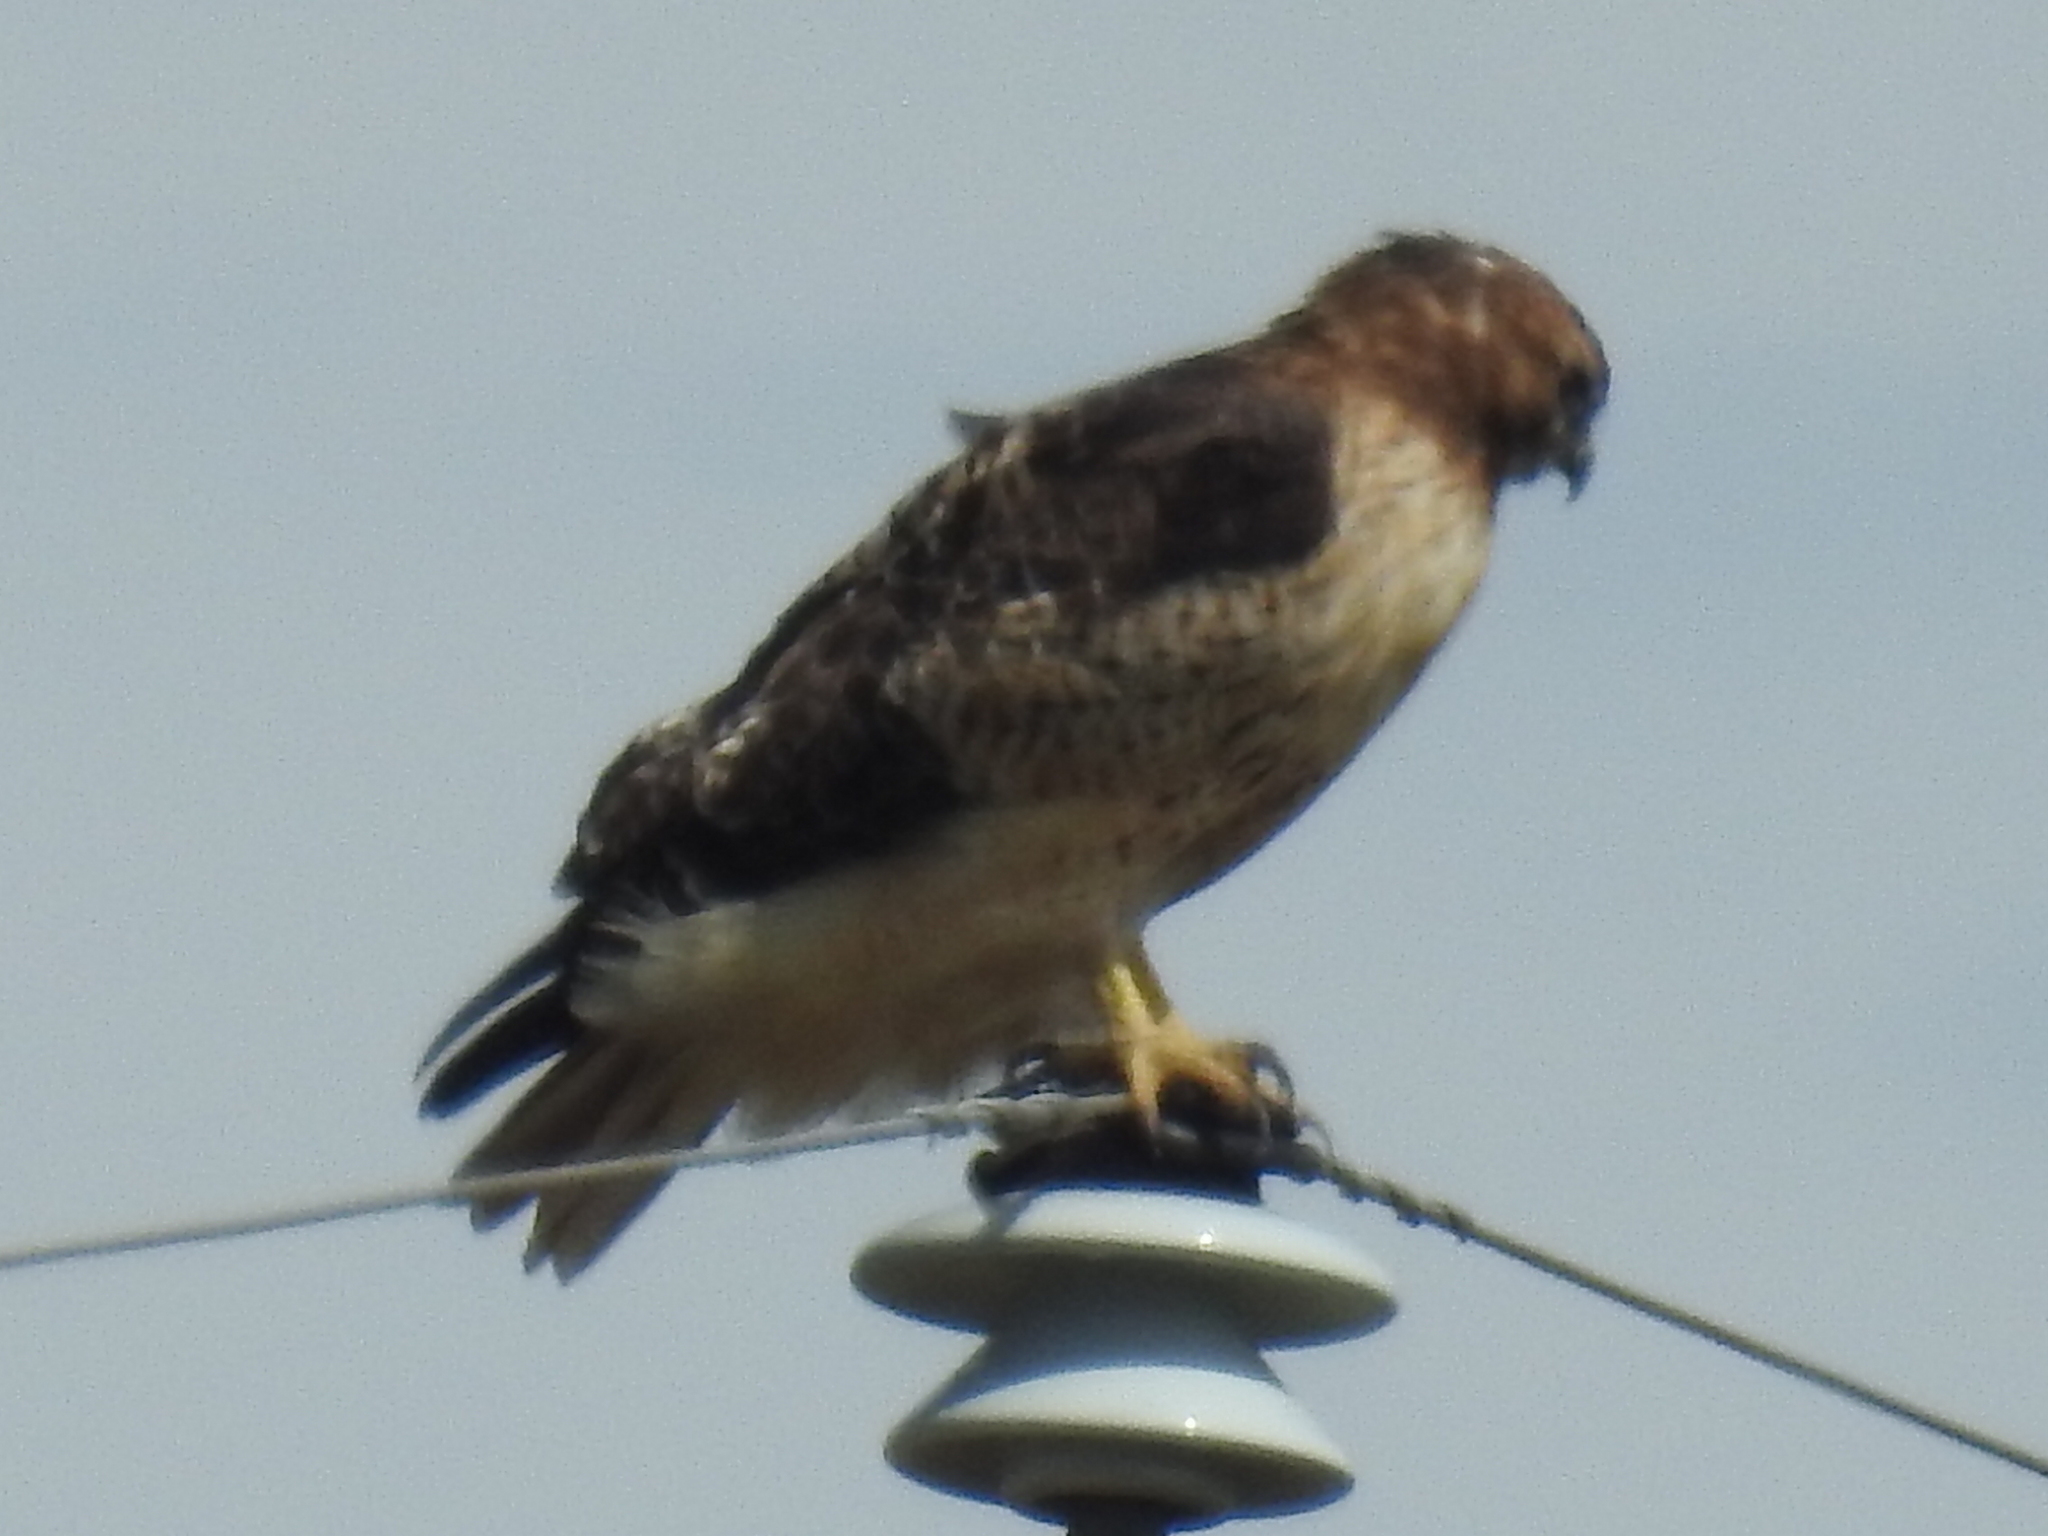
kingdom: Animalia
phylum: Chordata
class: Aves
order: Accipitriformes
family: Accipitridae
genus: Buteo
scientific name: Buteo jamaicensis
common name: Red-tailed hawk
